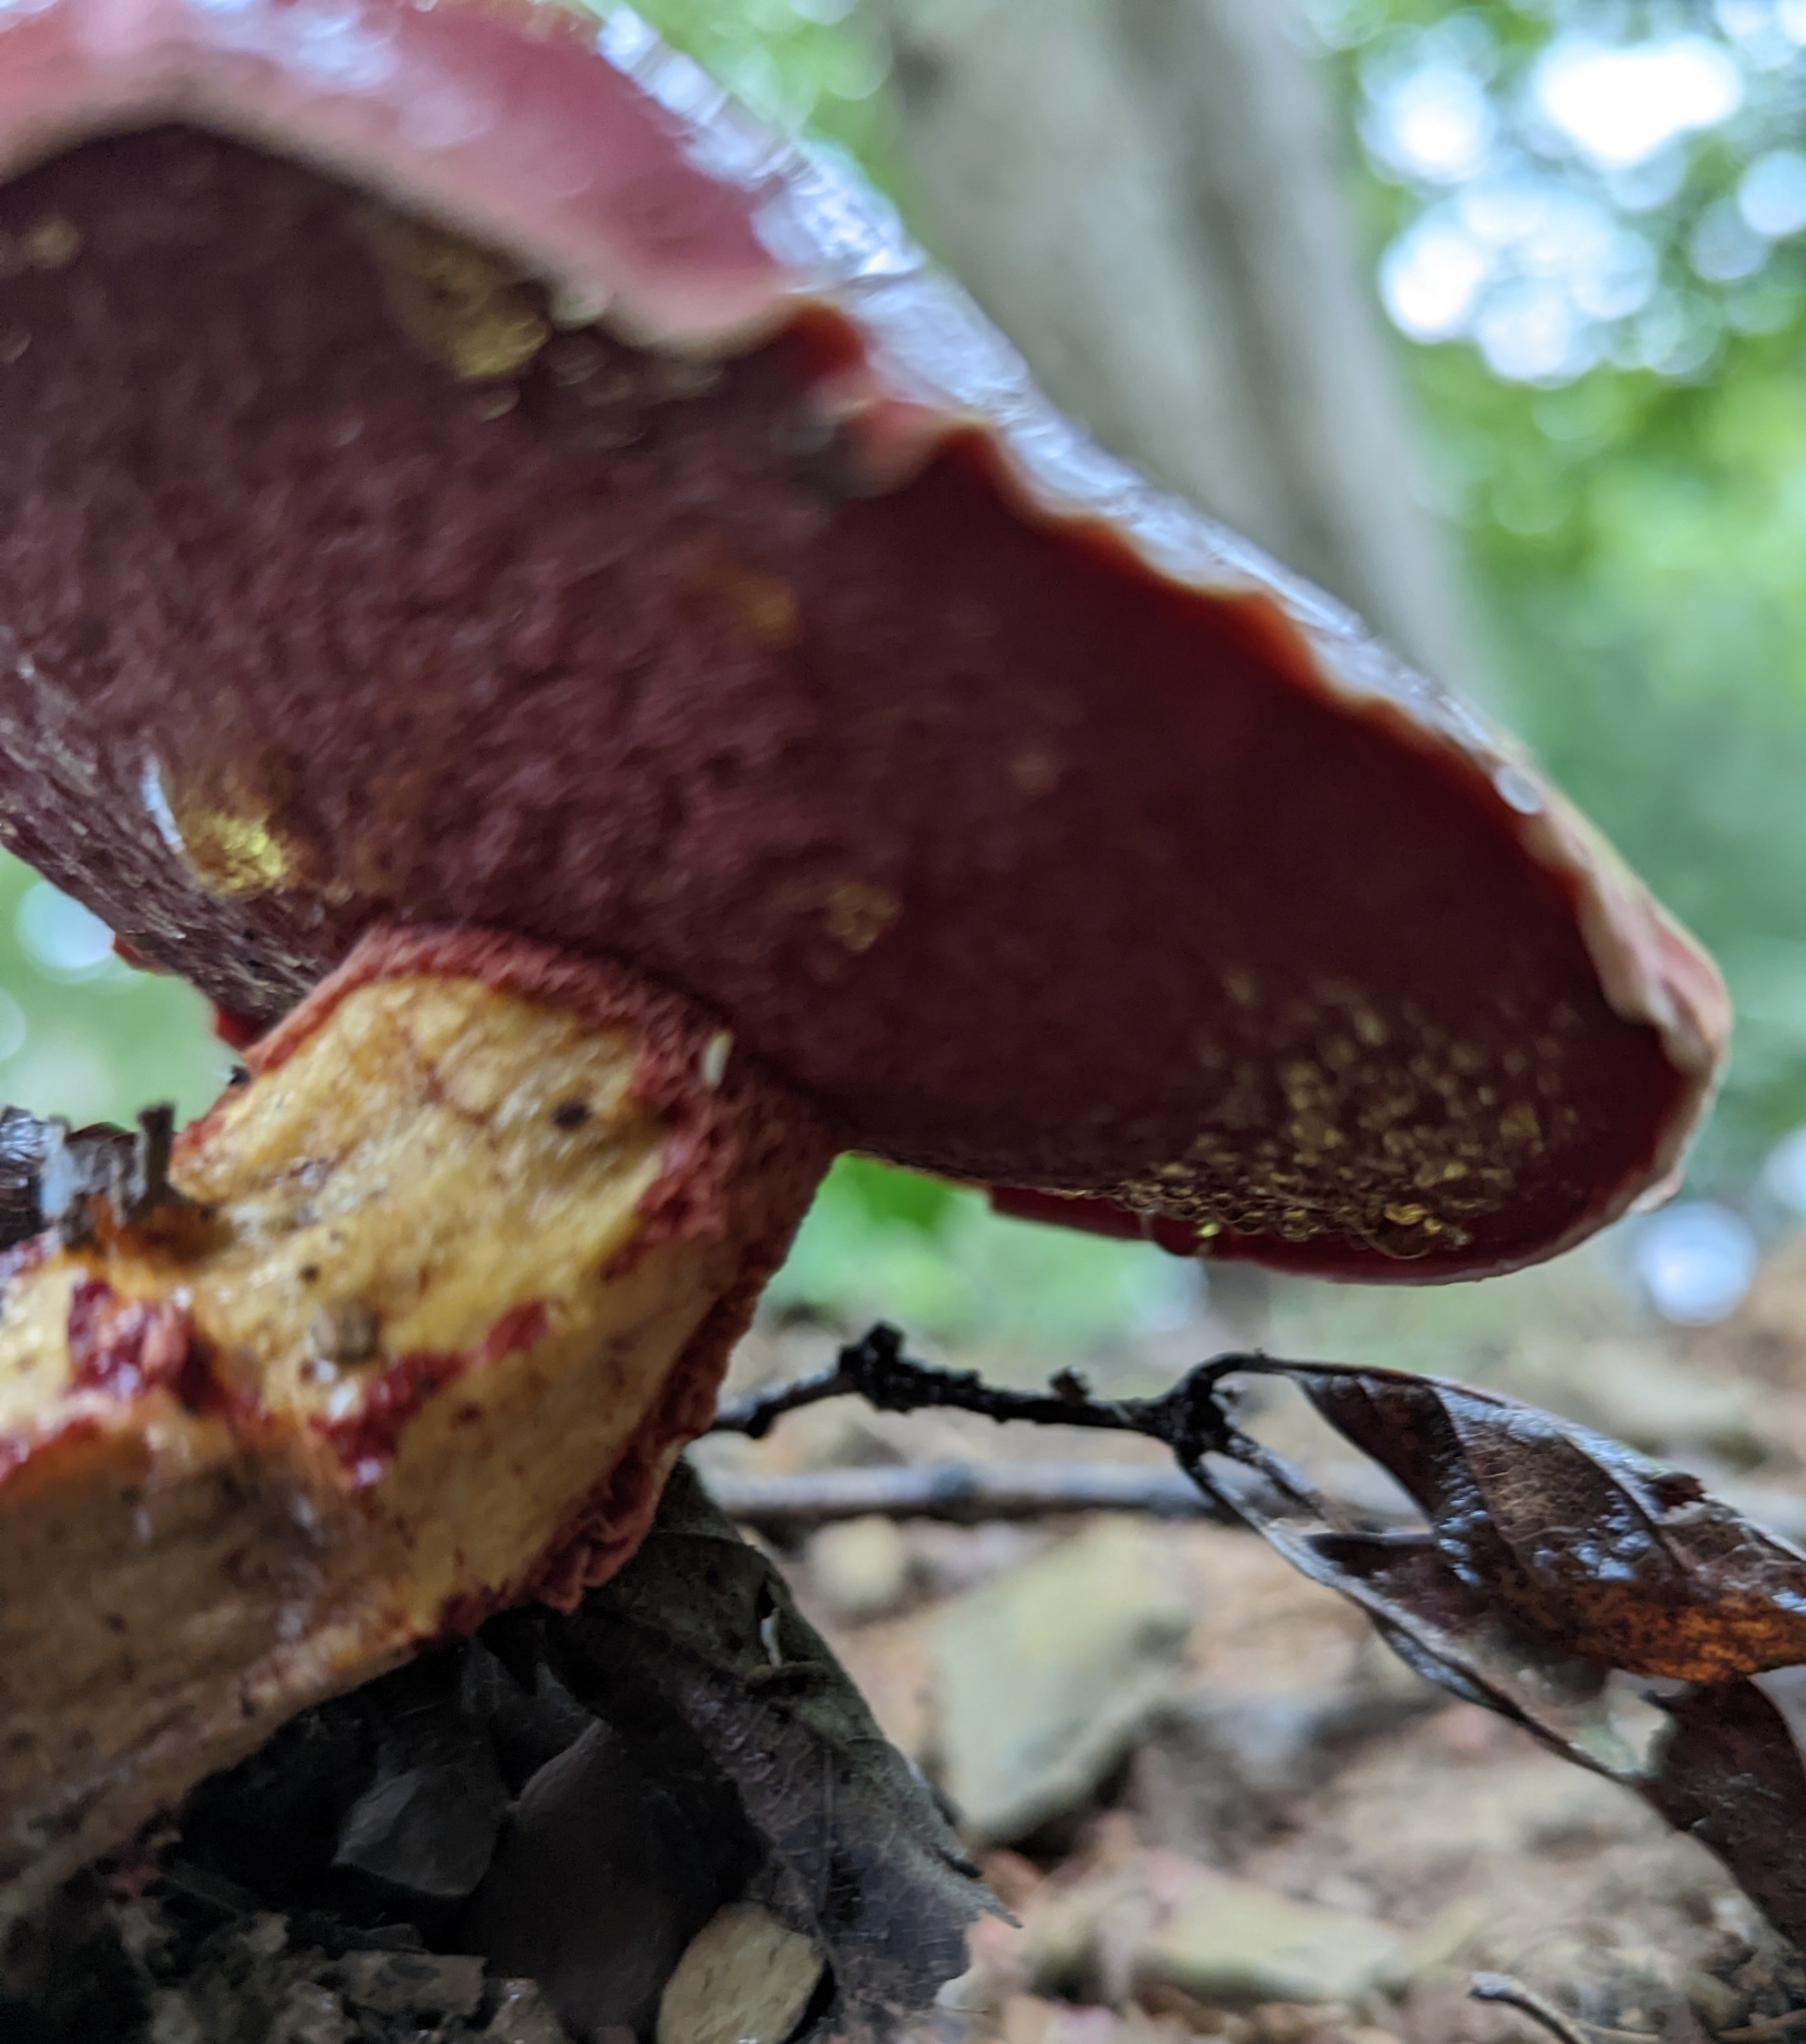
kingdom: Fungi
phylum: Basidiomycota
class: Agaricomycetes
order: Boletales
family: Boletaceae
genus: Butyriboletus
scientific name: Butyriboletus frostii
